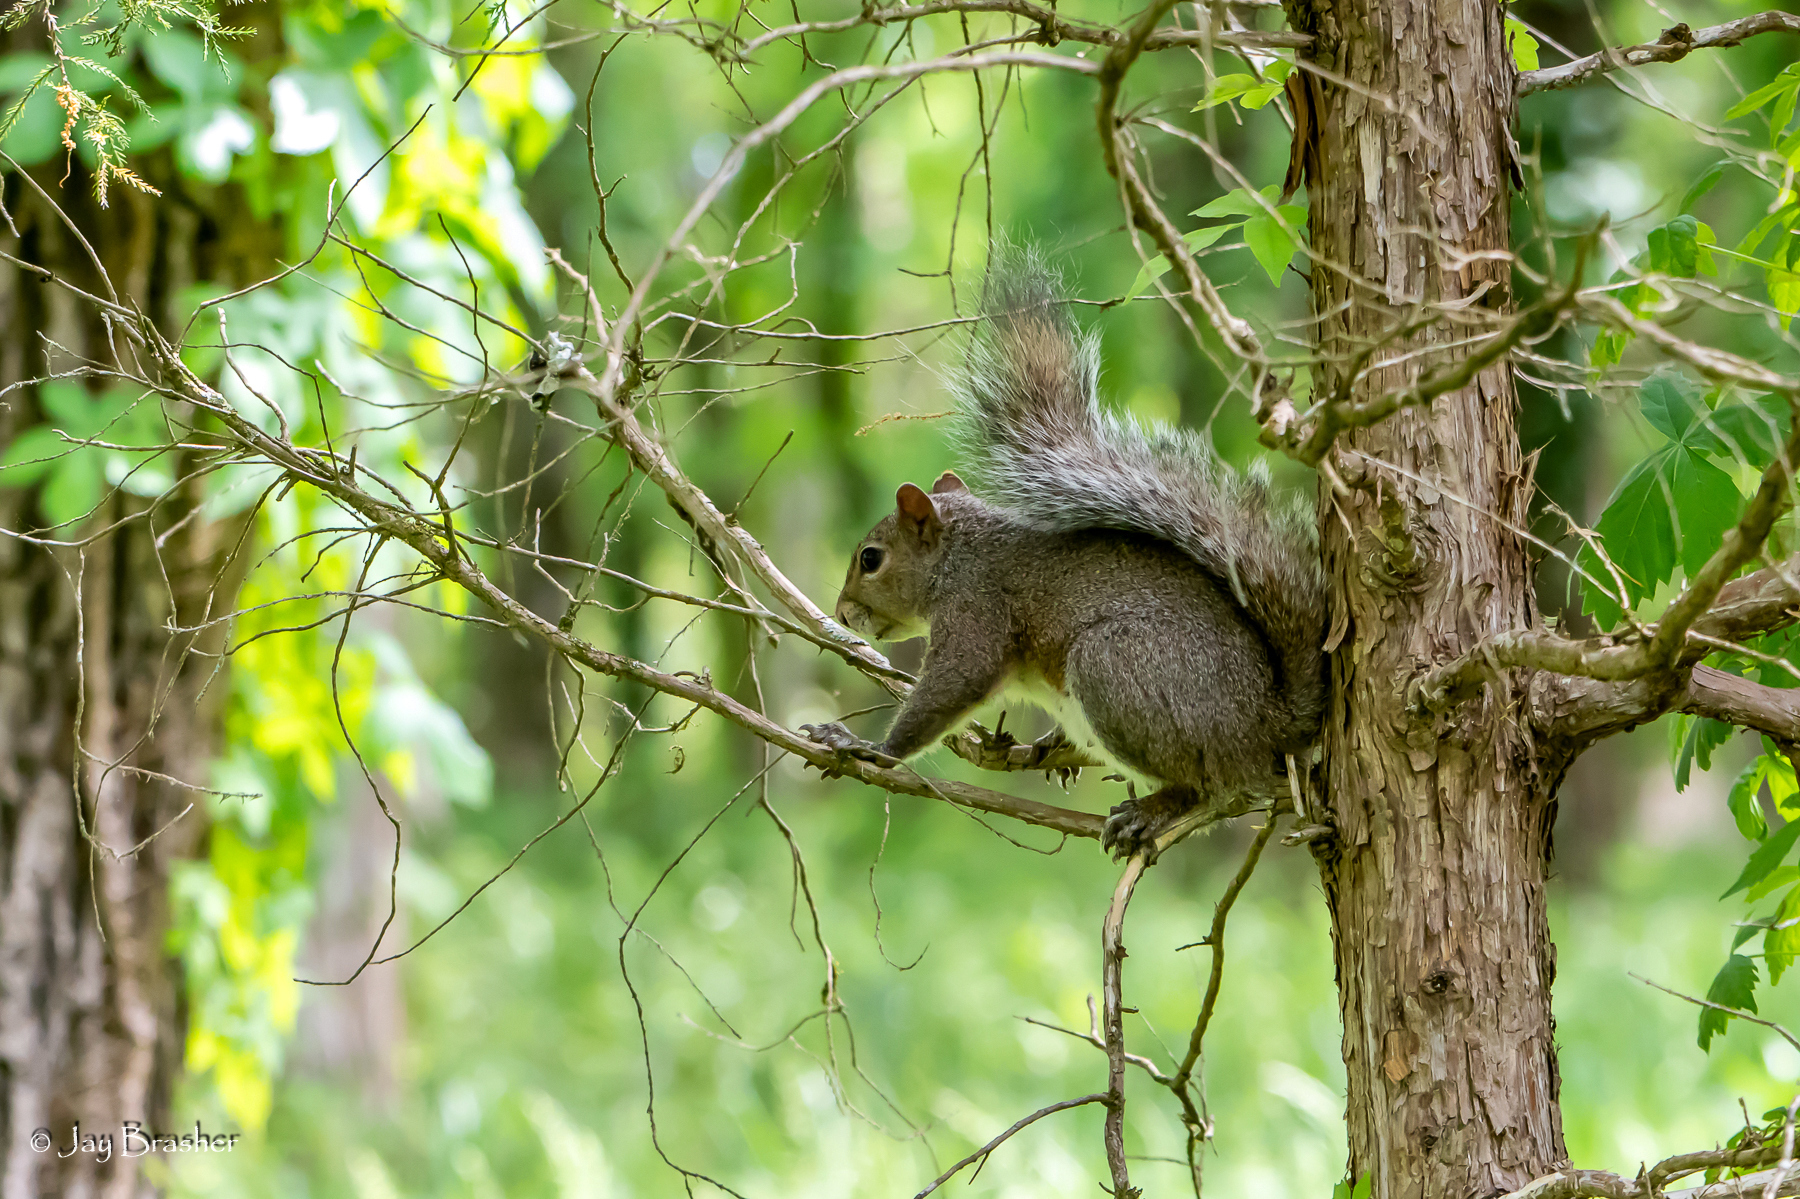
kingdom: Animalia
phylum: Chordata
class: Mammalia
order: Rodentia
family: Sciuridae
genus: Sciurus
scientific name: Sciurus carolinensis
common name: Eastern gray squirrel
